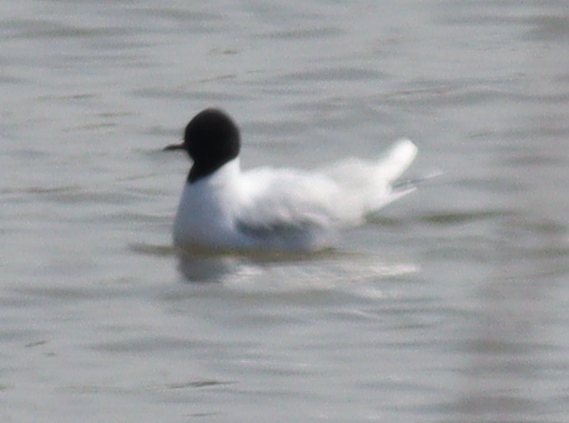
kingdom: Animalia
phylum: Chordata
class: Aves
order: Charadriiformes
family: Laridae
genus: Hydrocoloeus
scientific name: Hydrocoloeus minutus
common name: Little gull
